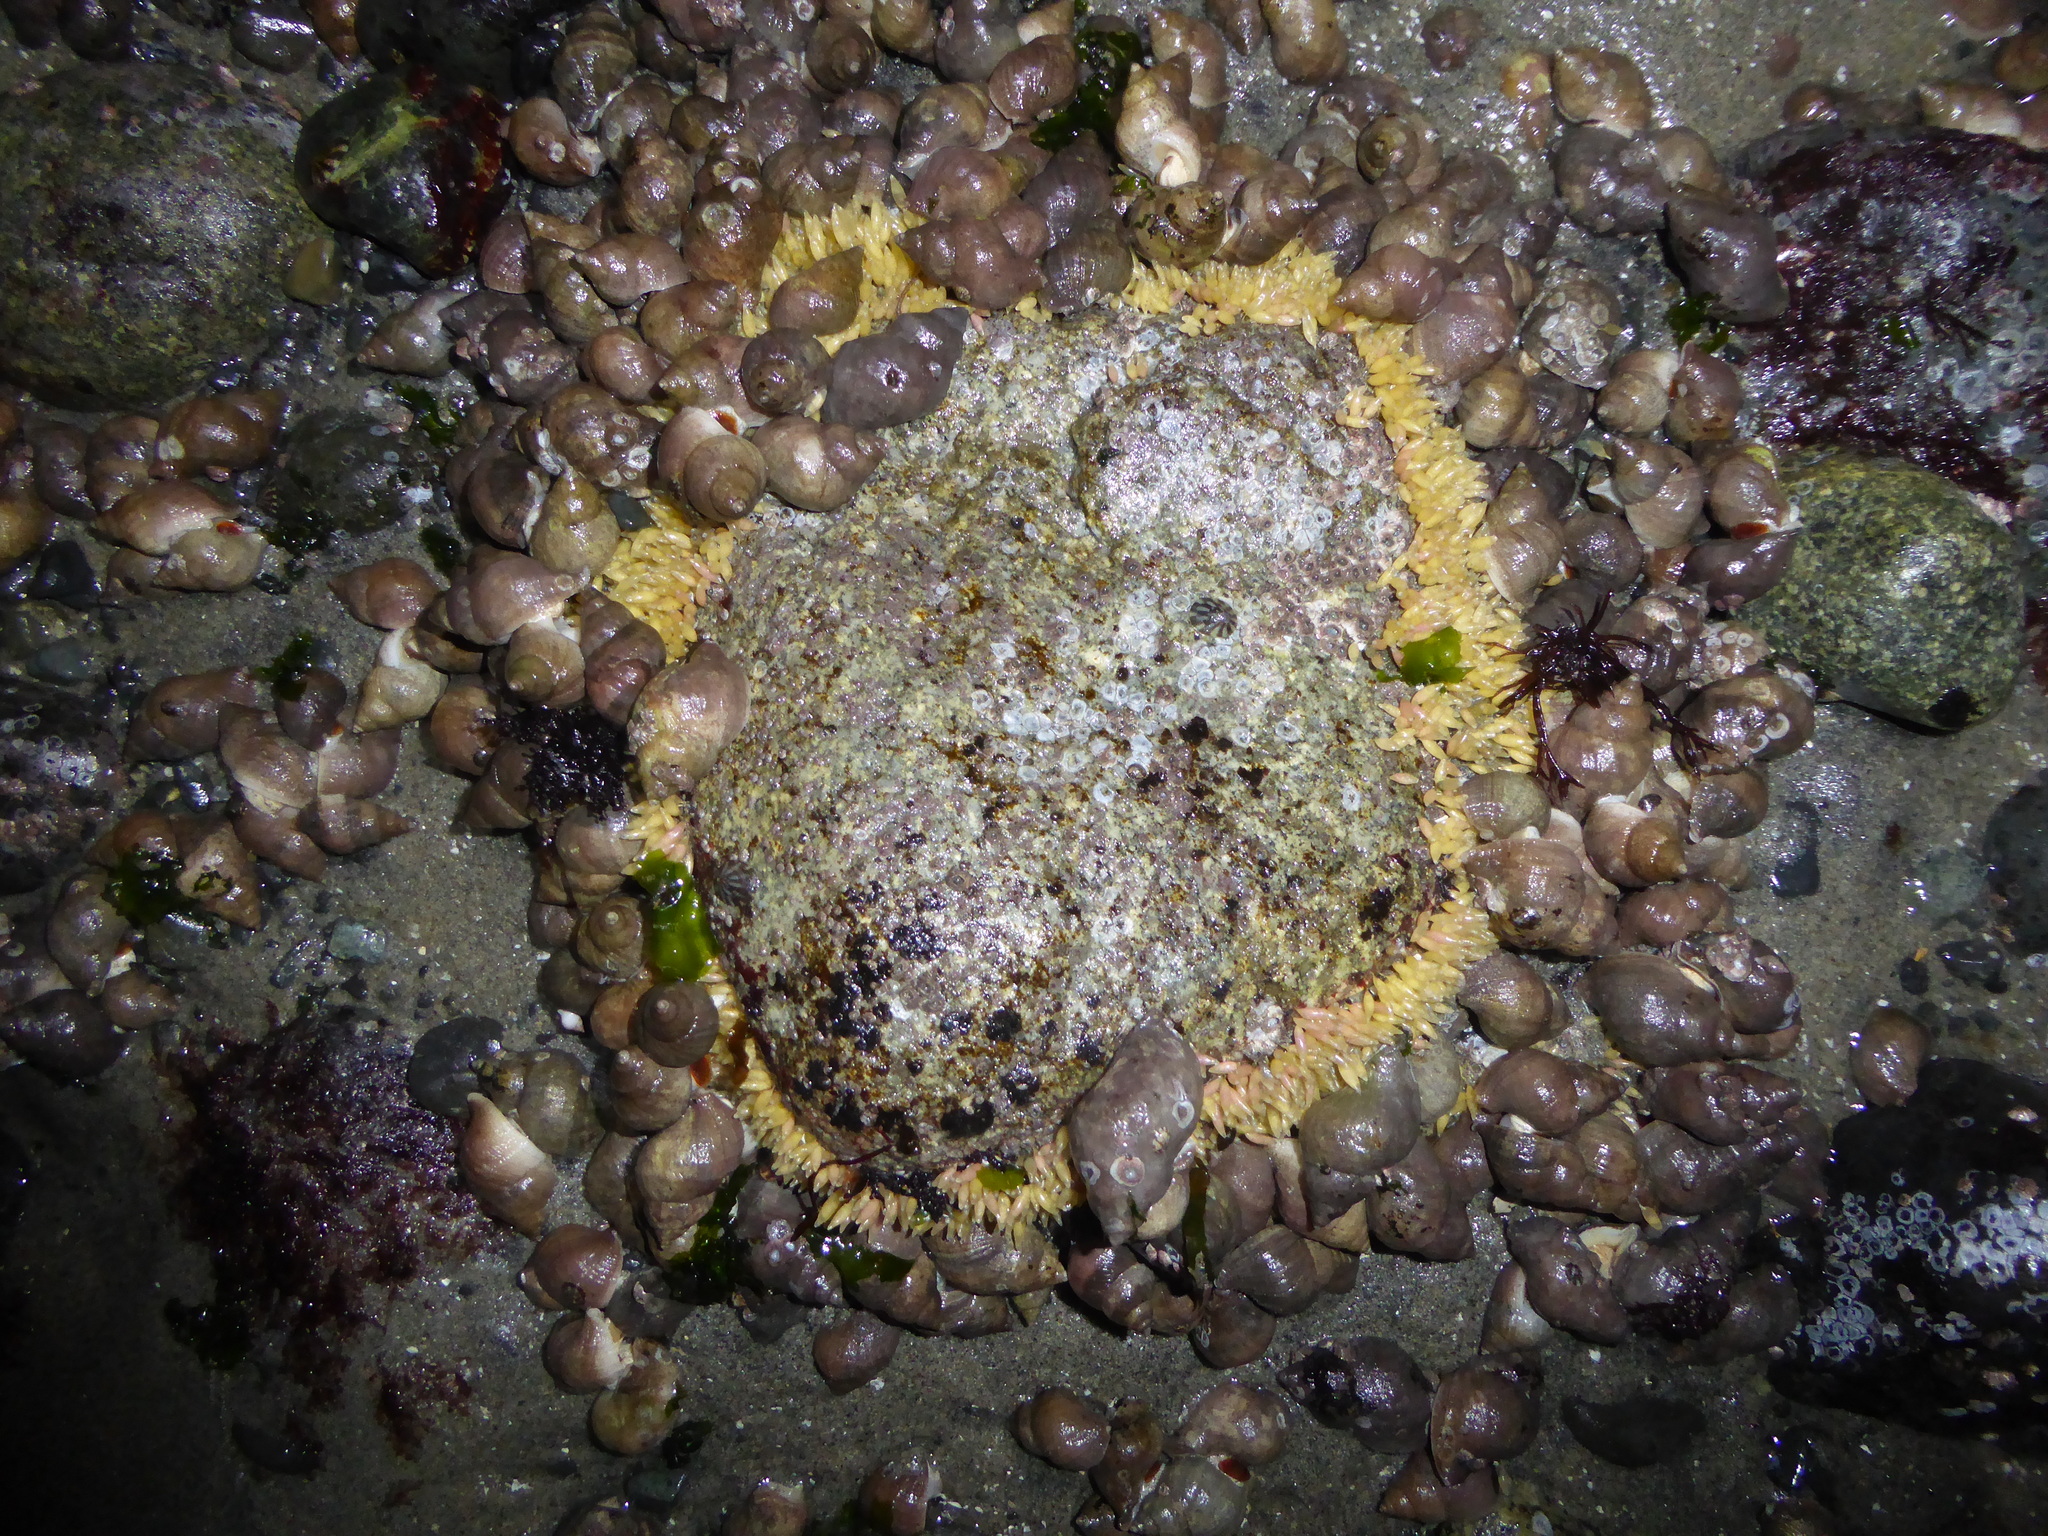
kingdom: Animalia
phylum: Mollusca
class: Gastropoda
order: Neogastropoda
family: Muricidae
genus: Nucella
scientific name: Nucella lamellosa
